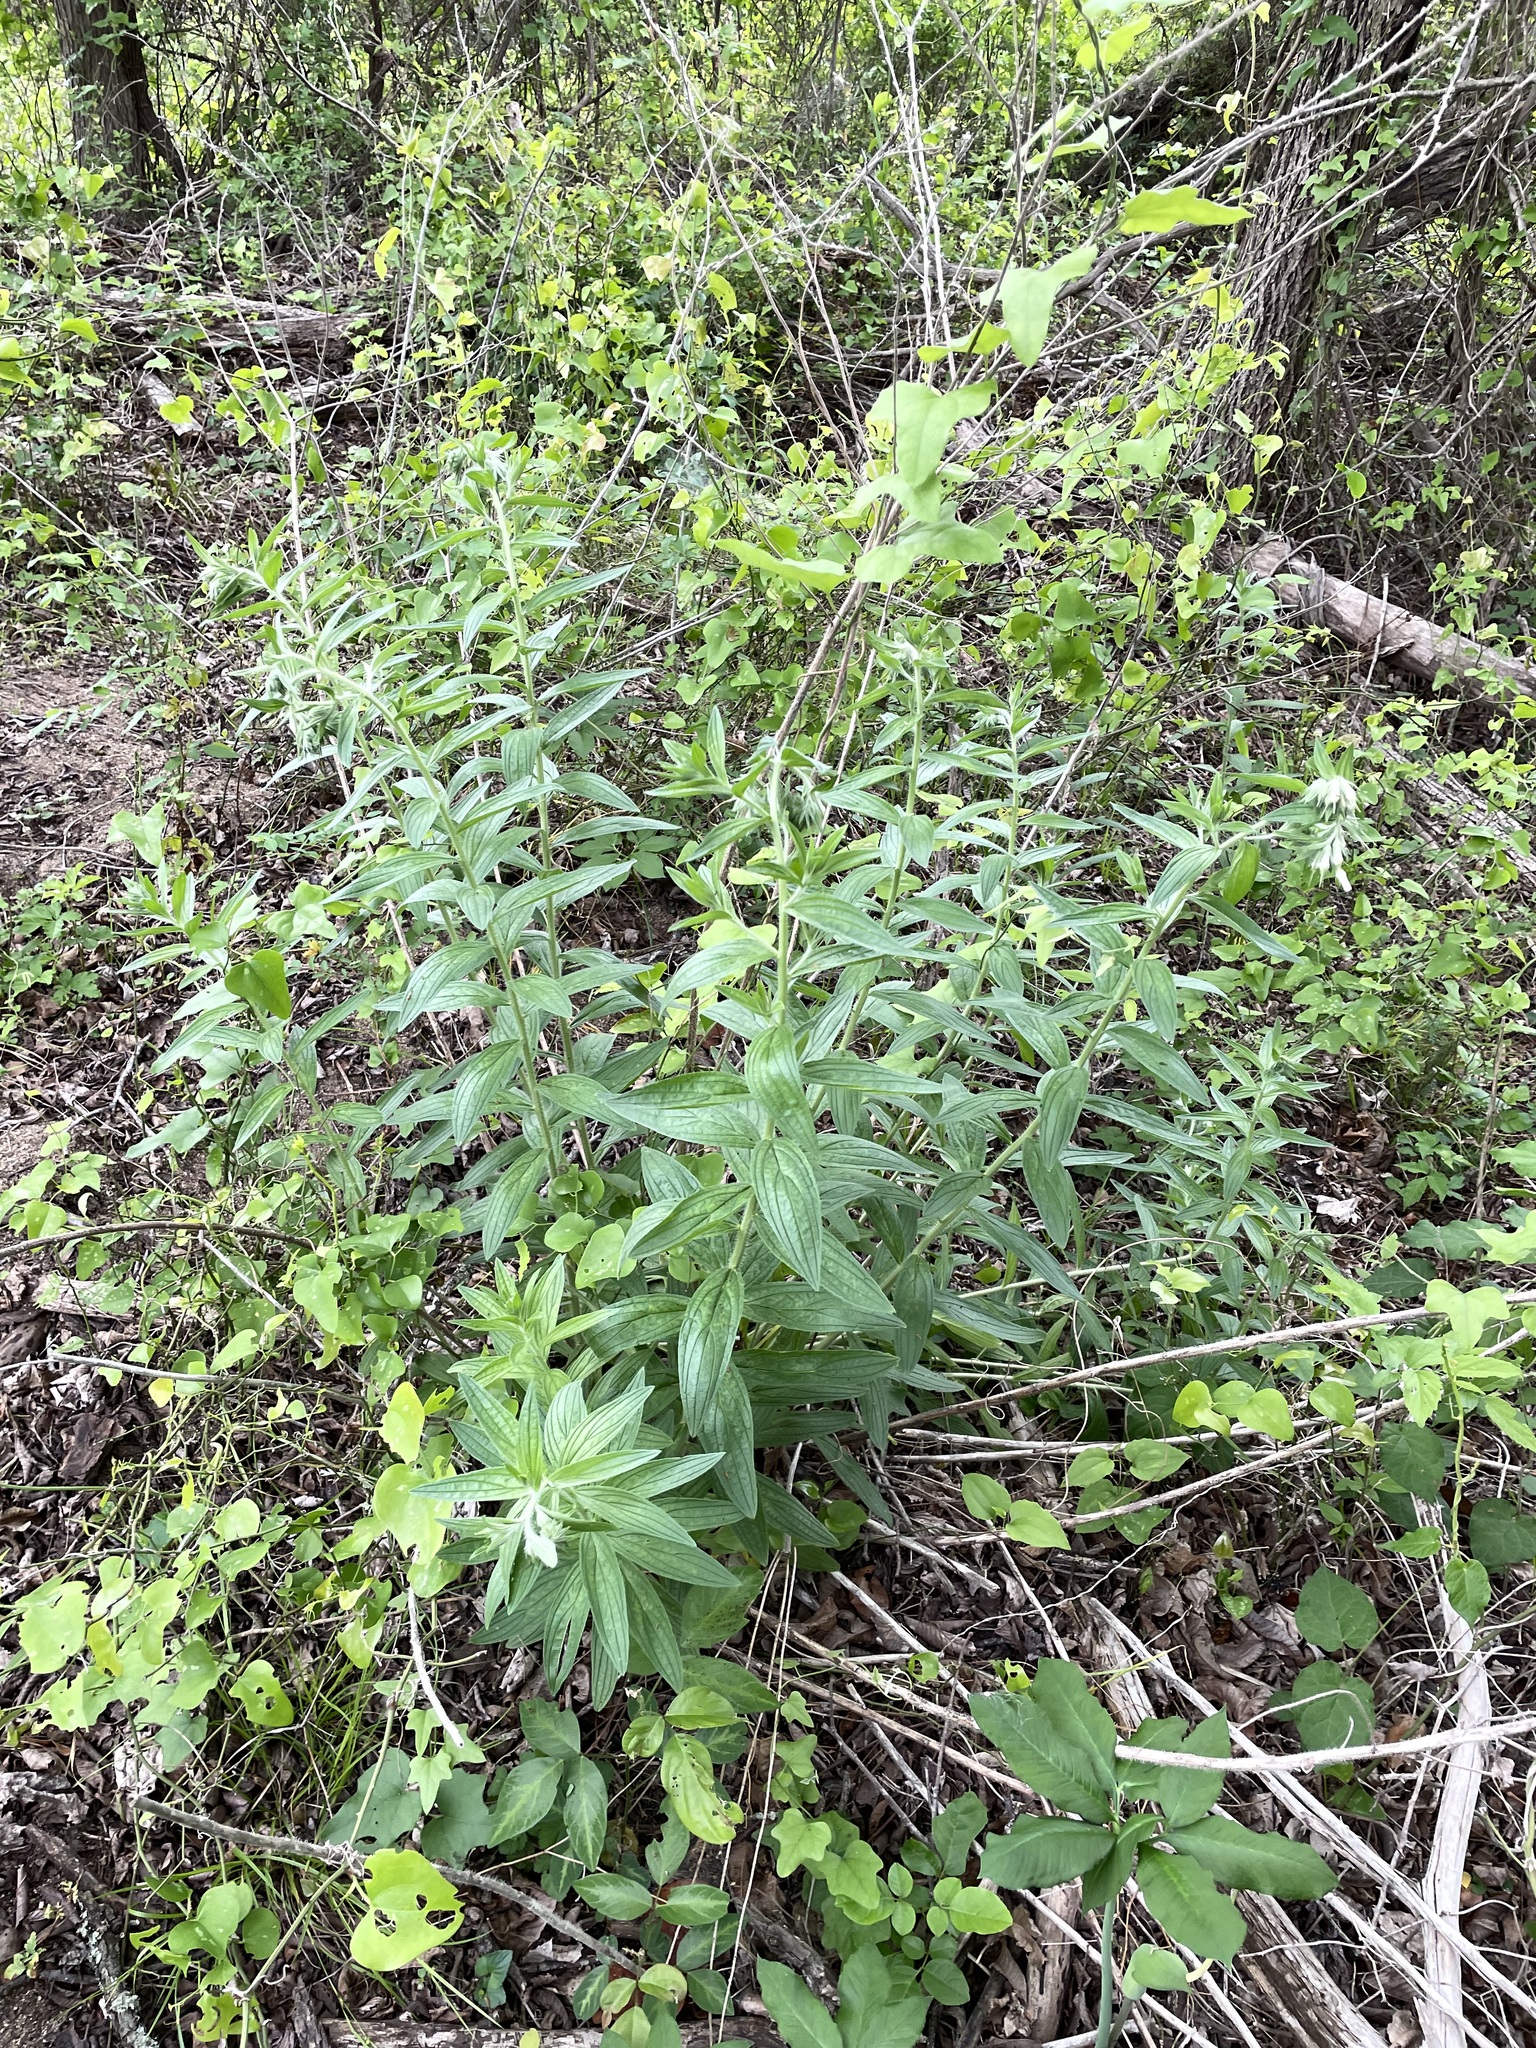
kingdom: Plantae
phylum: Tracheophyta
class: Magnoliopsida
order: Boraginales
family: Boraginaceae
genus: Lithospermum
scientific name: Lithospermum caroliniense
